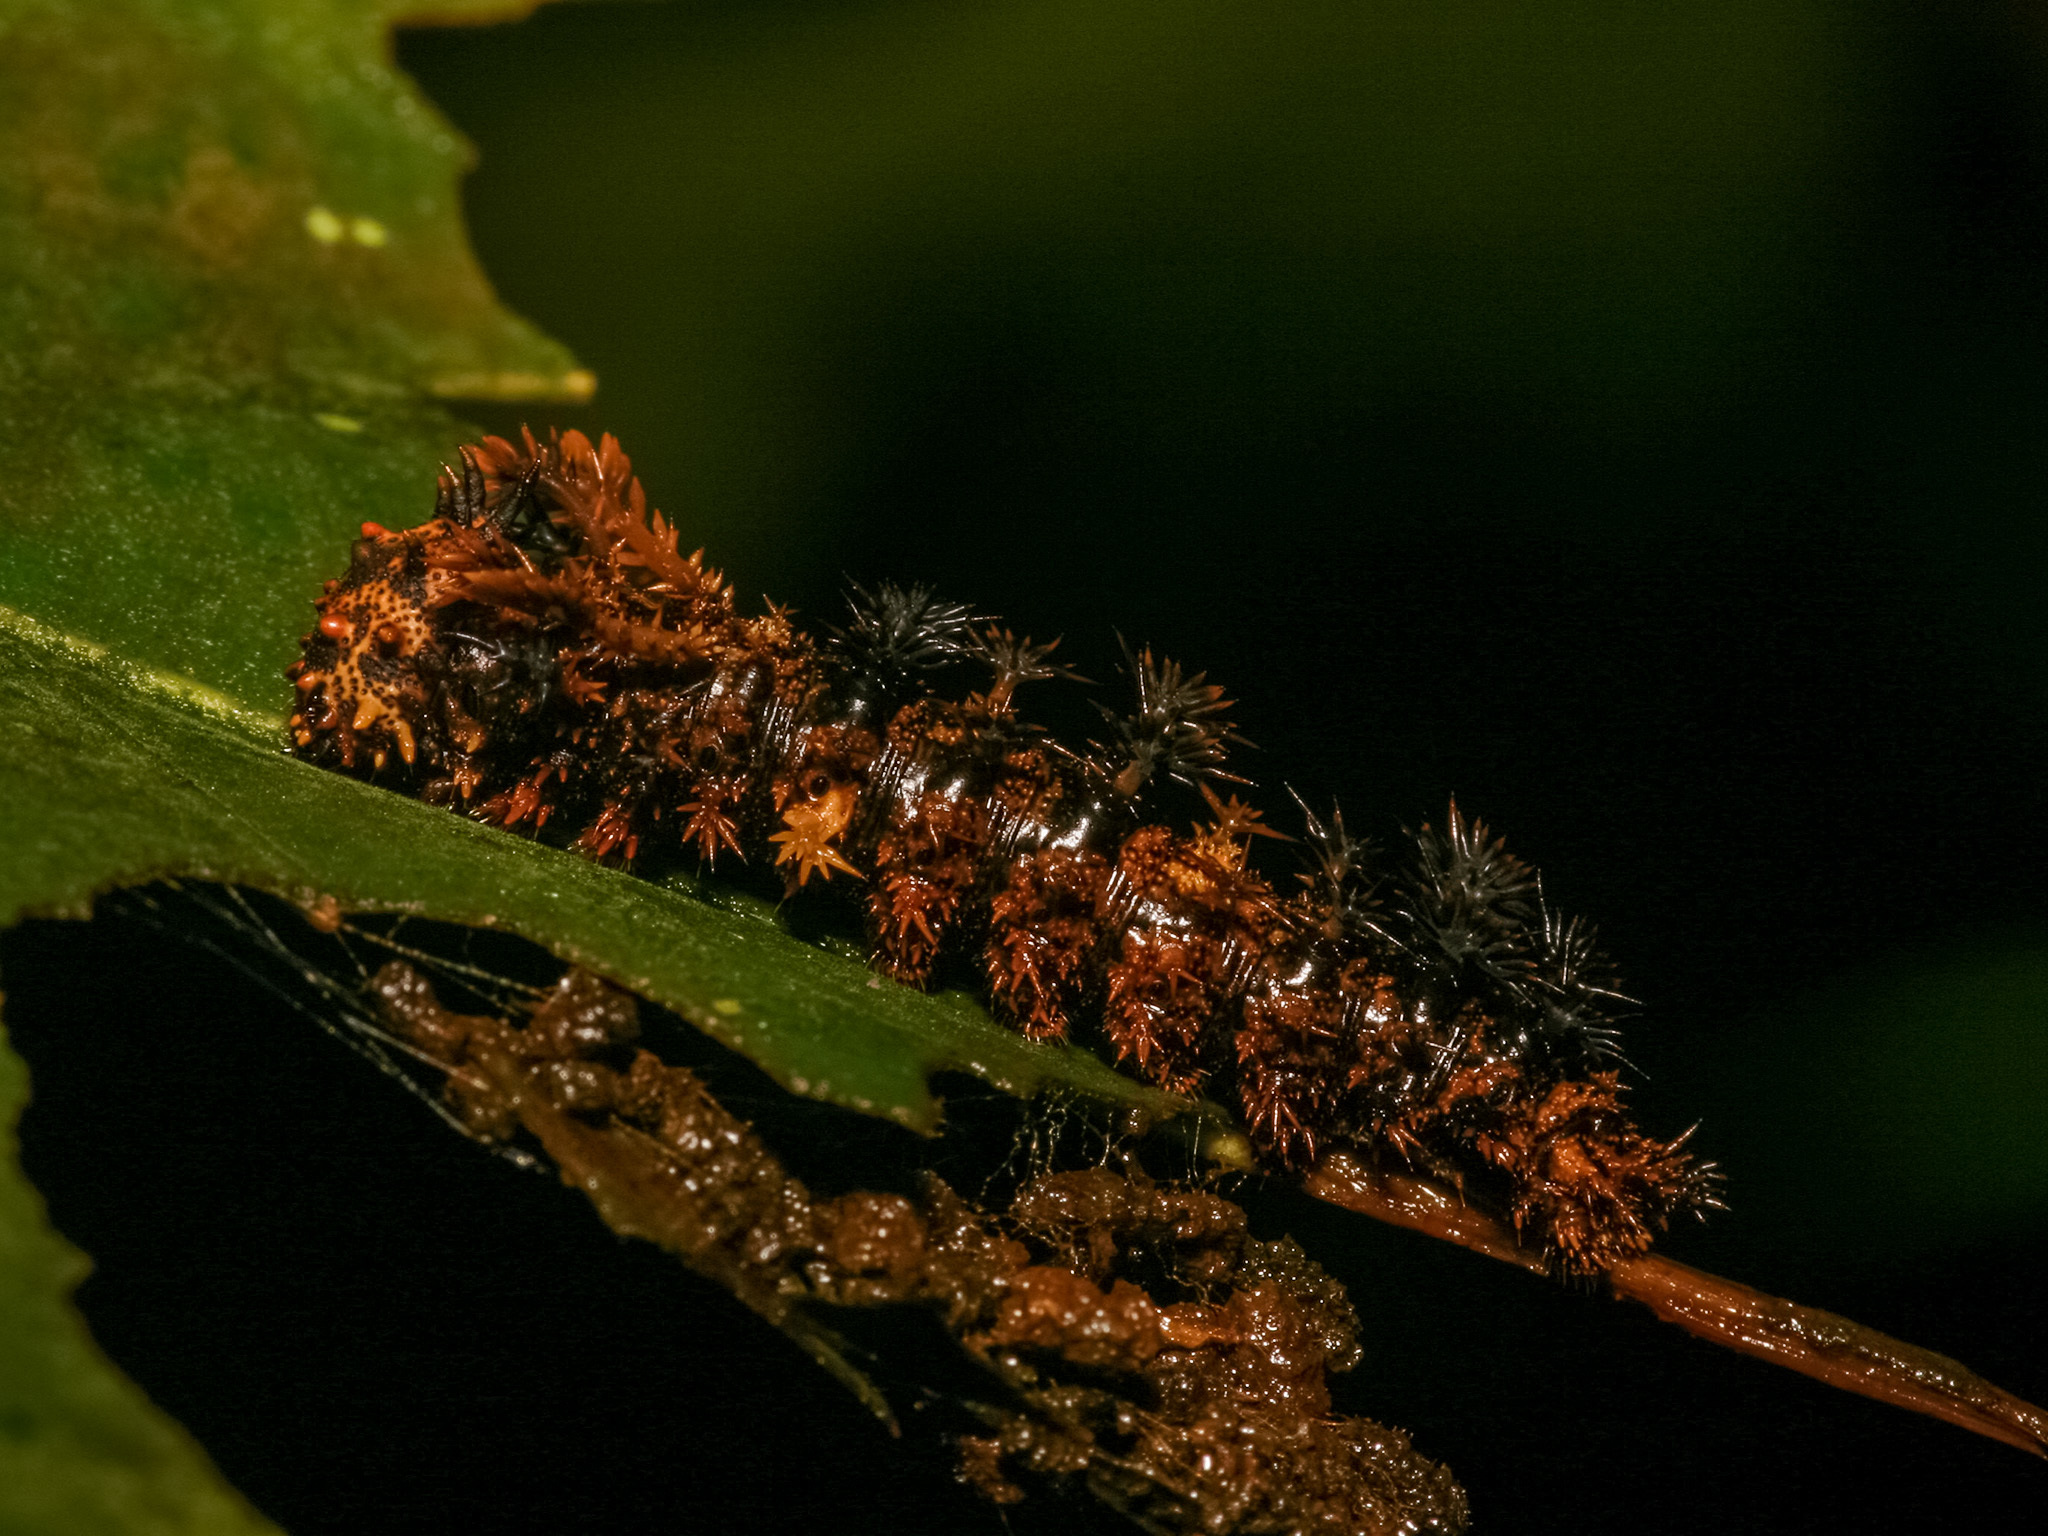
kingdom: Animalia
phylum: Arthropoda
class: Insecta
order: Lepidoptera
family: Nymphalidae
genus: Limenitis
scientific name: Limenitis Moduza procris
